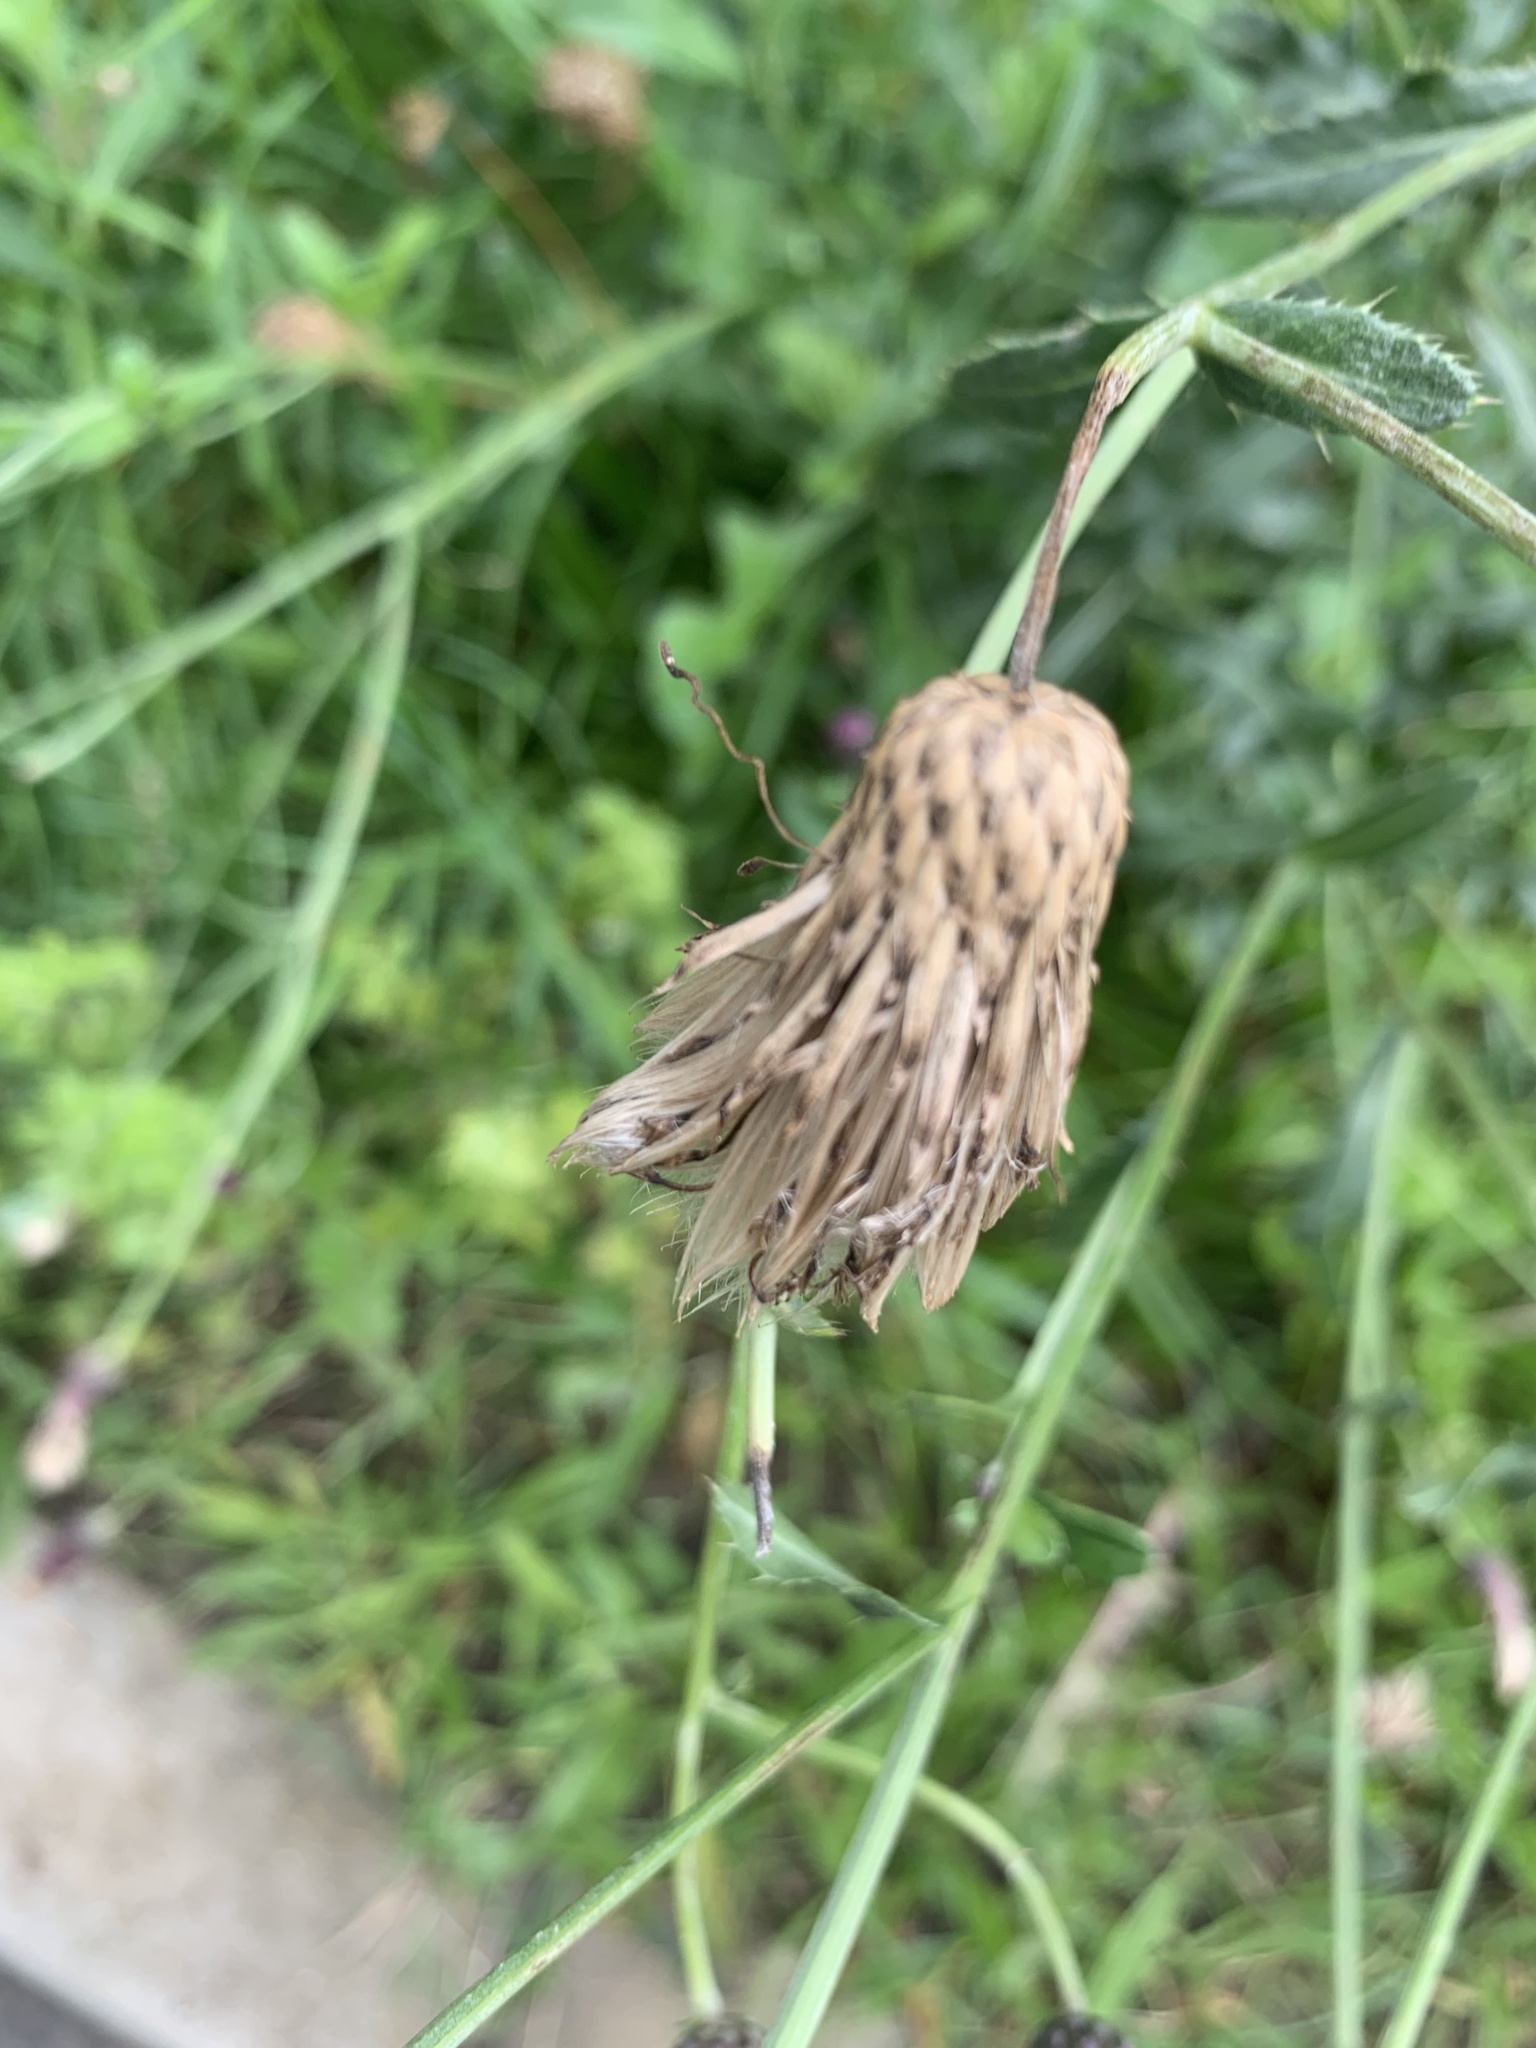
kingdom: Plantae
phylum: Tracheophyta
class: Magnoliopsida
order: Asterales
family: Asteraceae
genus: Cirsium
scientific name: Cirsium arvense
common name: Creeping thistle
